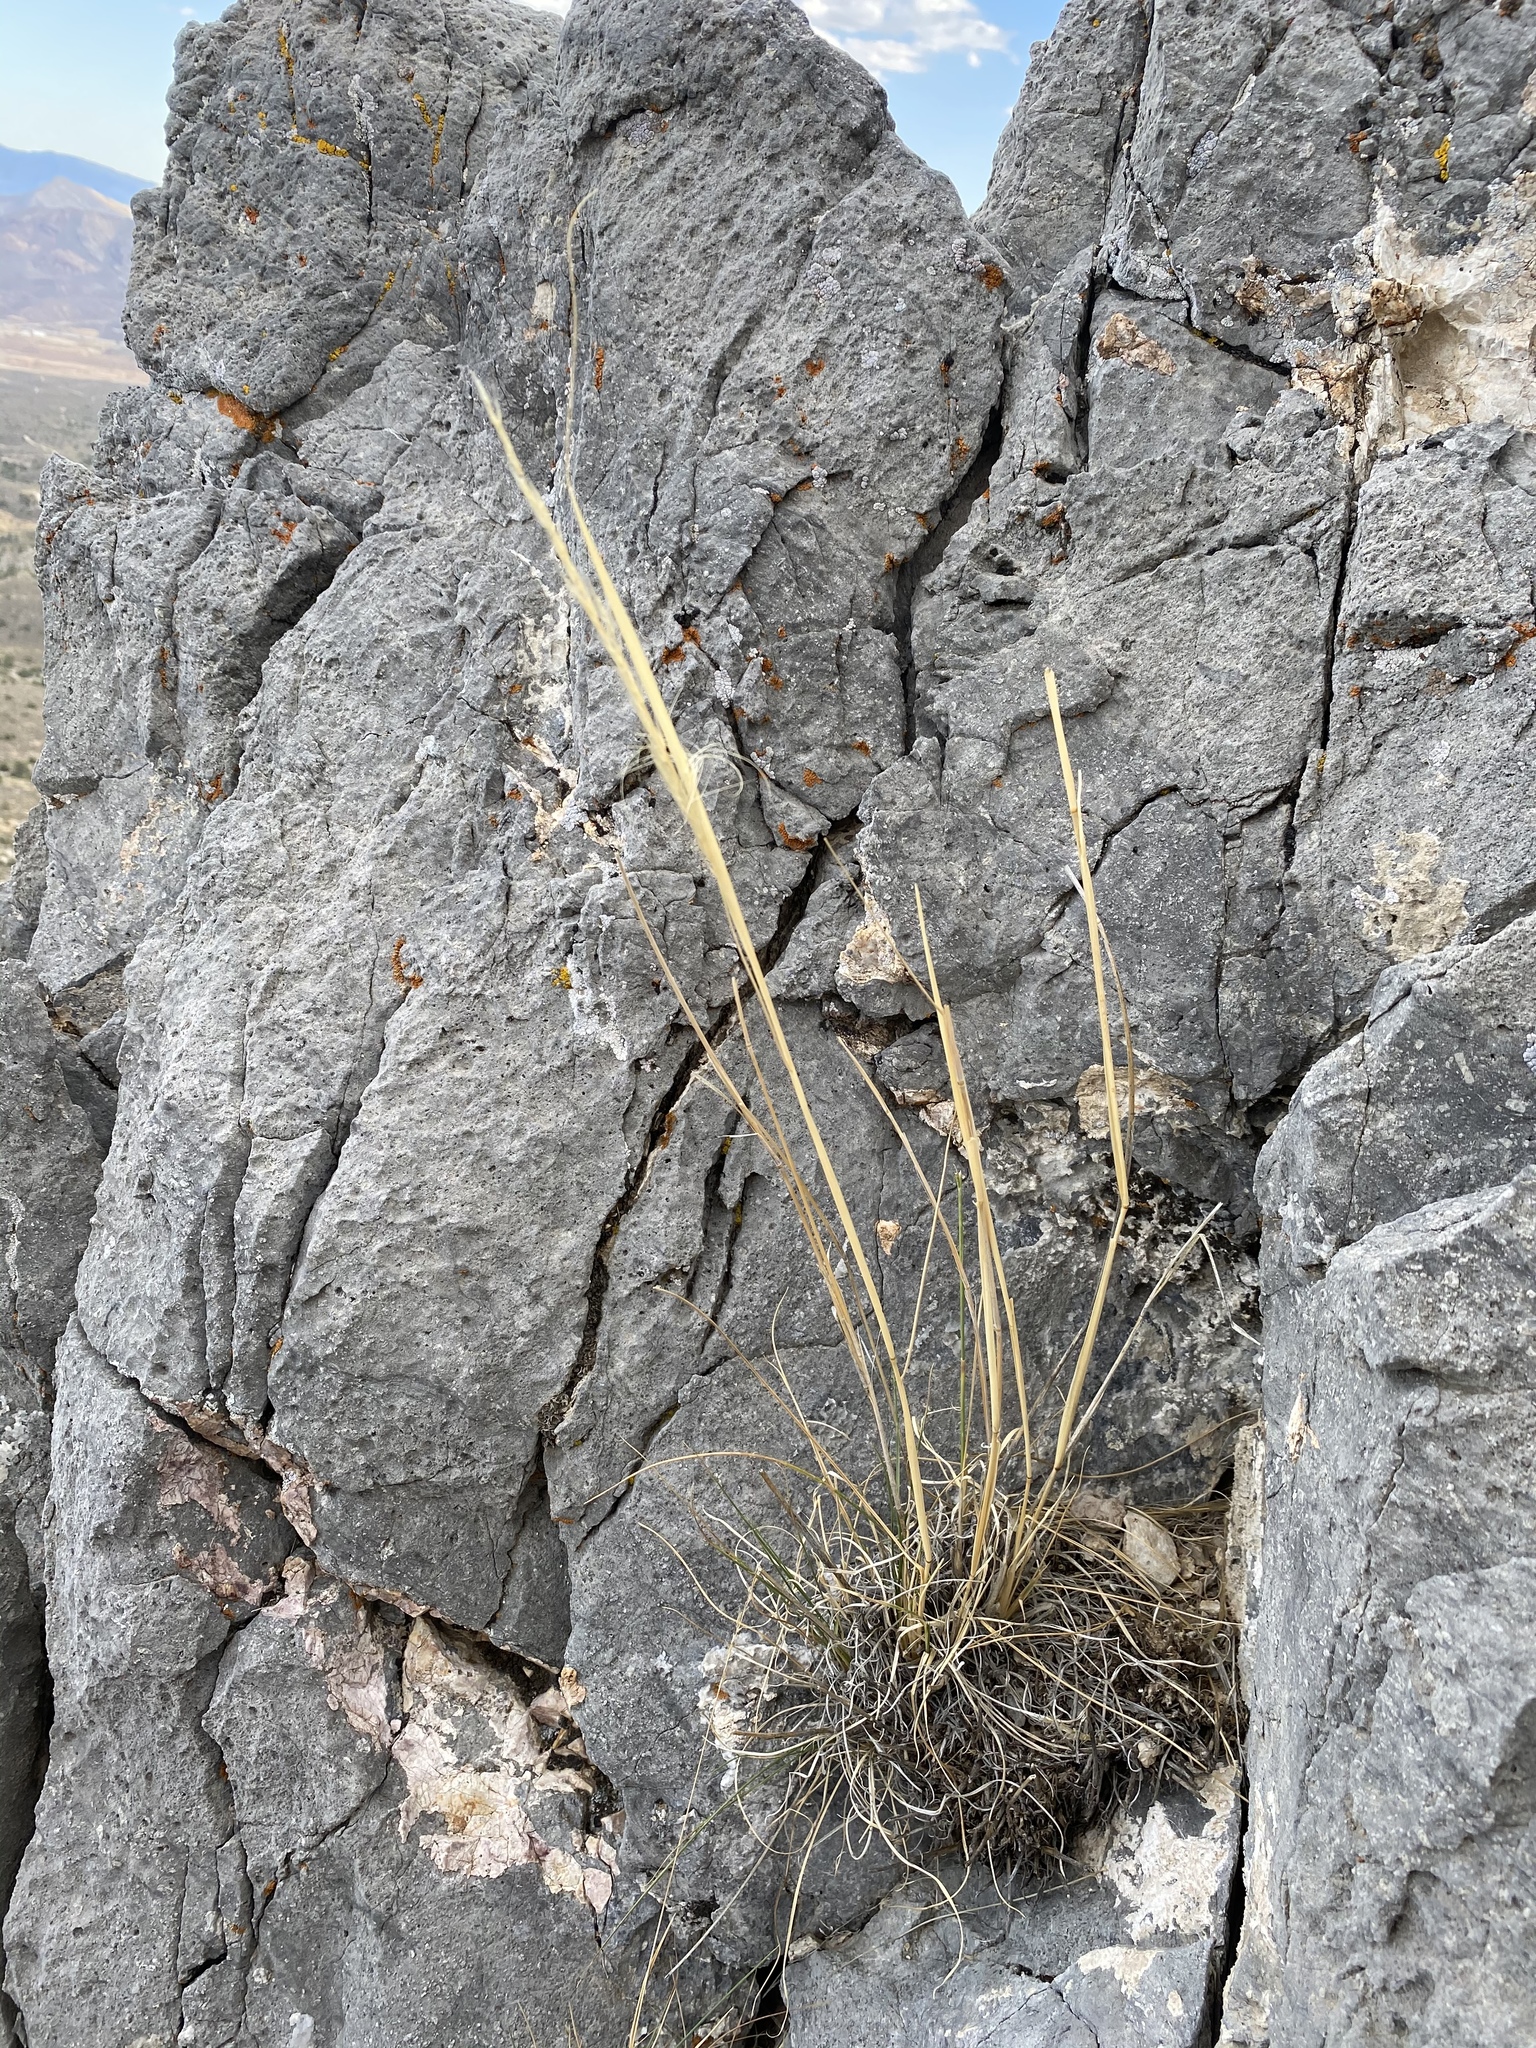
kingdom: Plantae
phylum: Tracheophyta
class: Liliopsida
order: Poales
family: Poaceae
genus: Eriocoma
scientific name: Eriocoma arida
